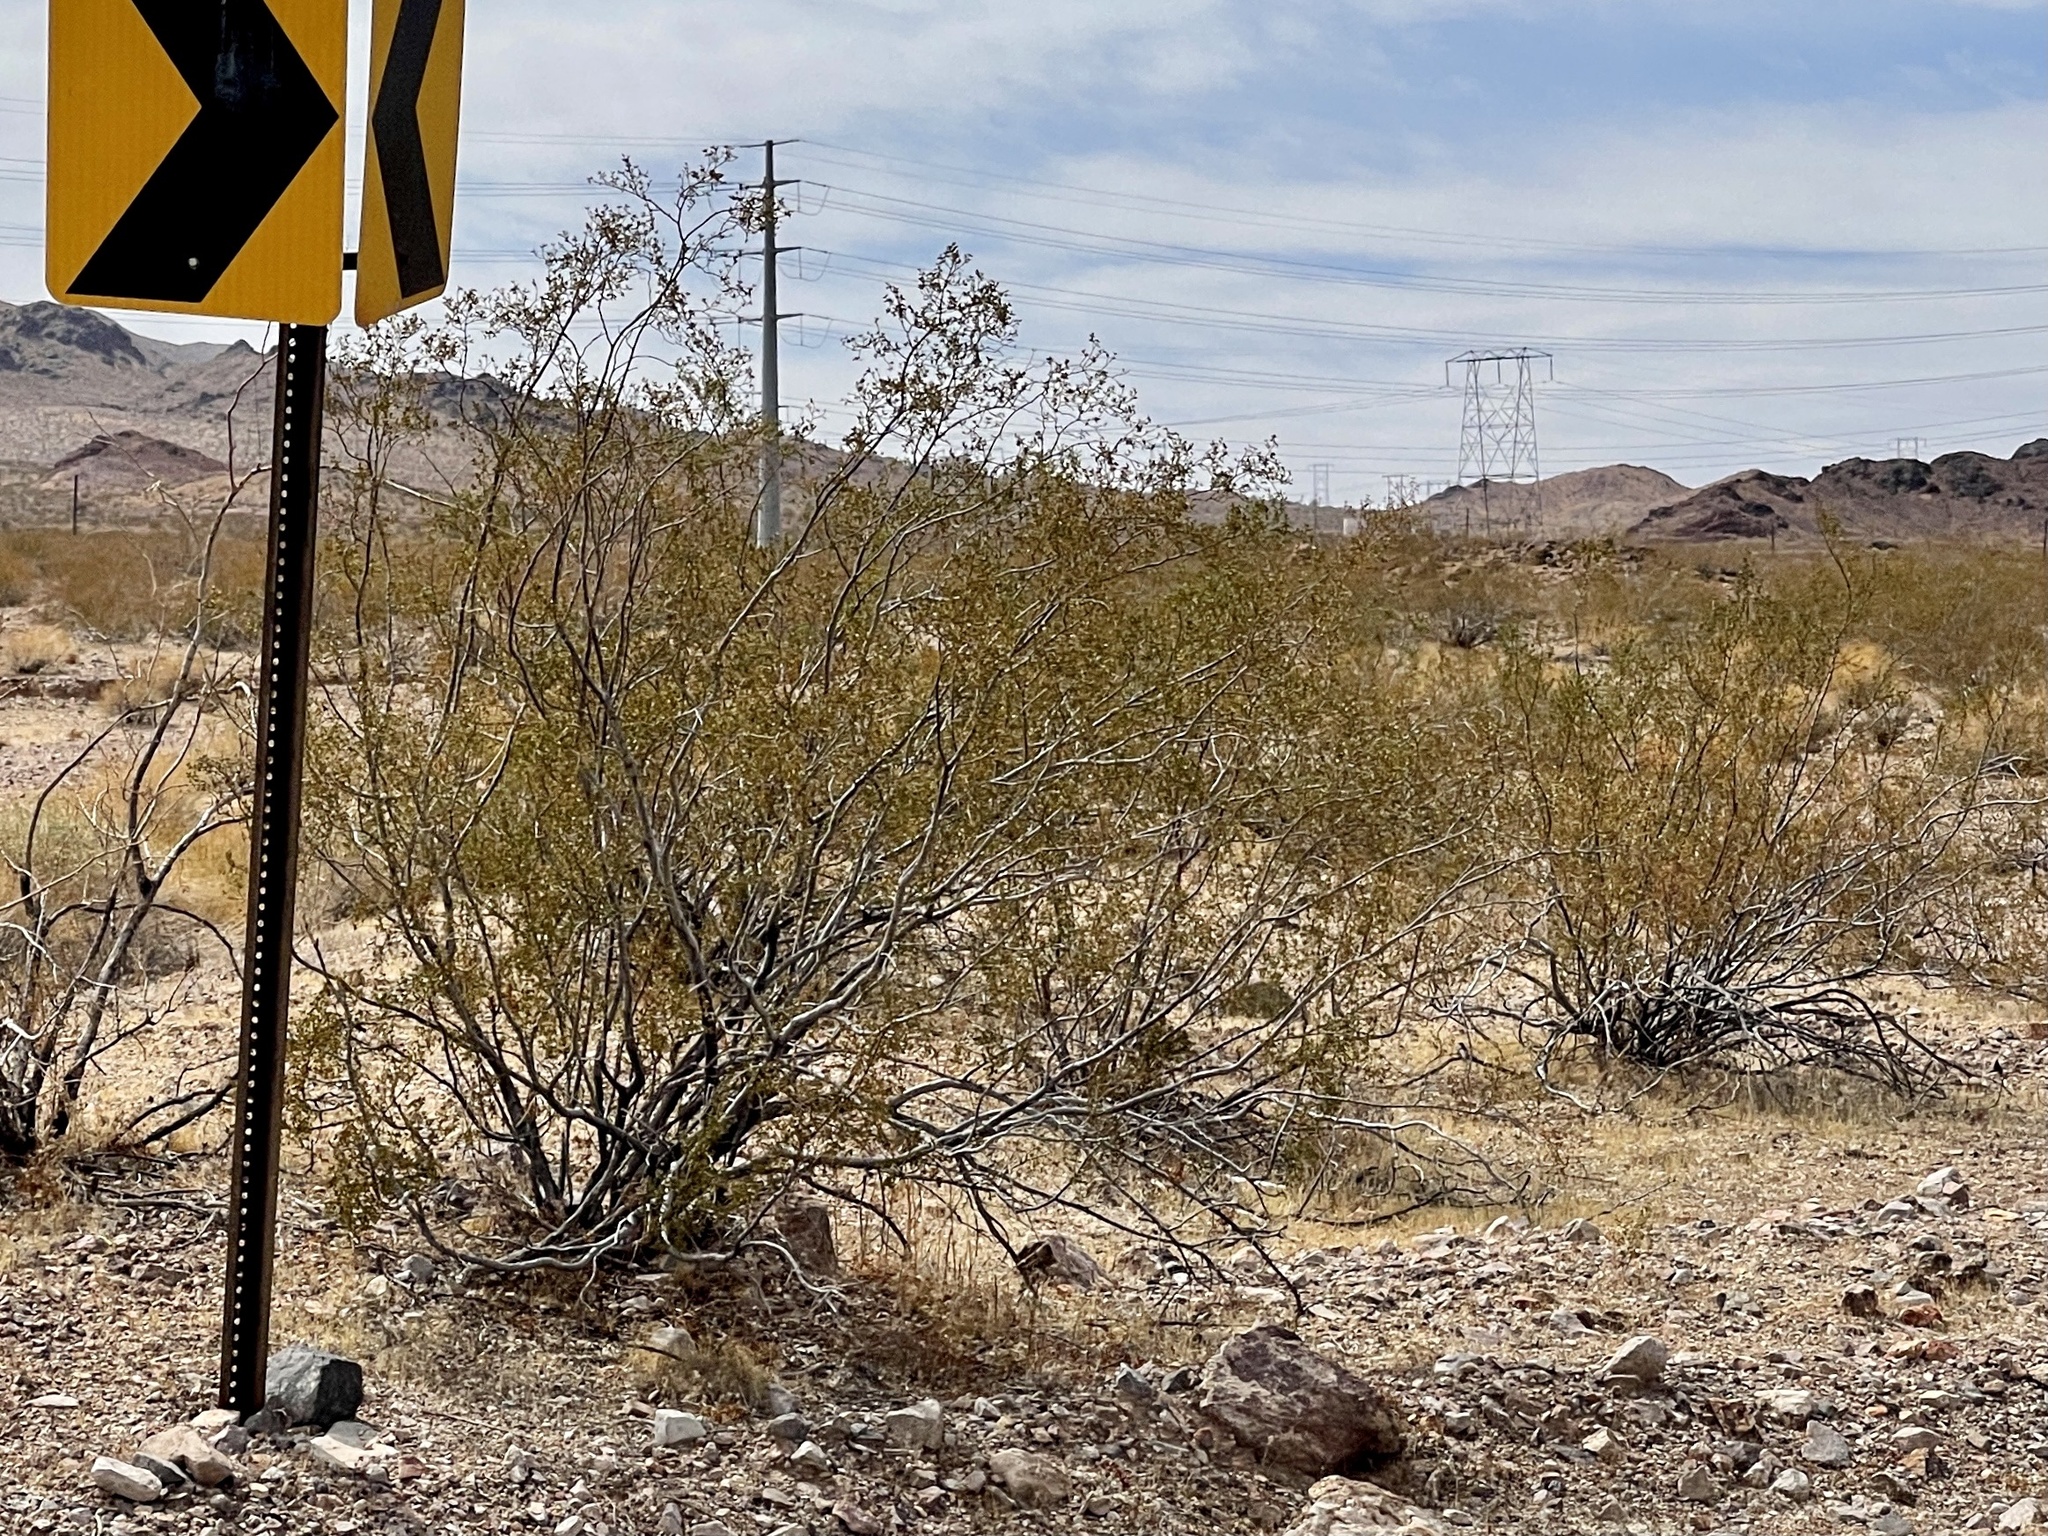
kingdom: Plantae
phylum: Tracheophyta
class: Magnoliopsida
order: Zygophyllales
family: Zygophyllaceae
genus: Larrea
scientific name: Larrea tridentata
